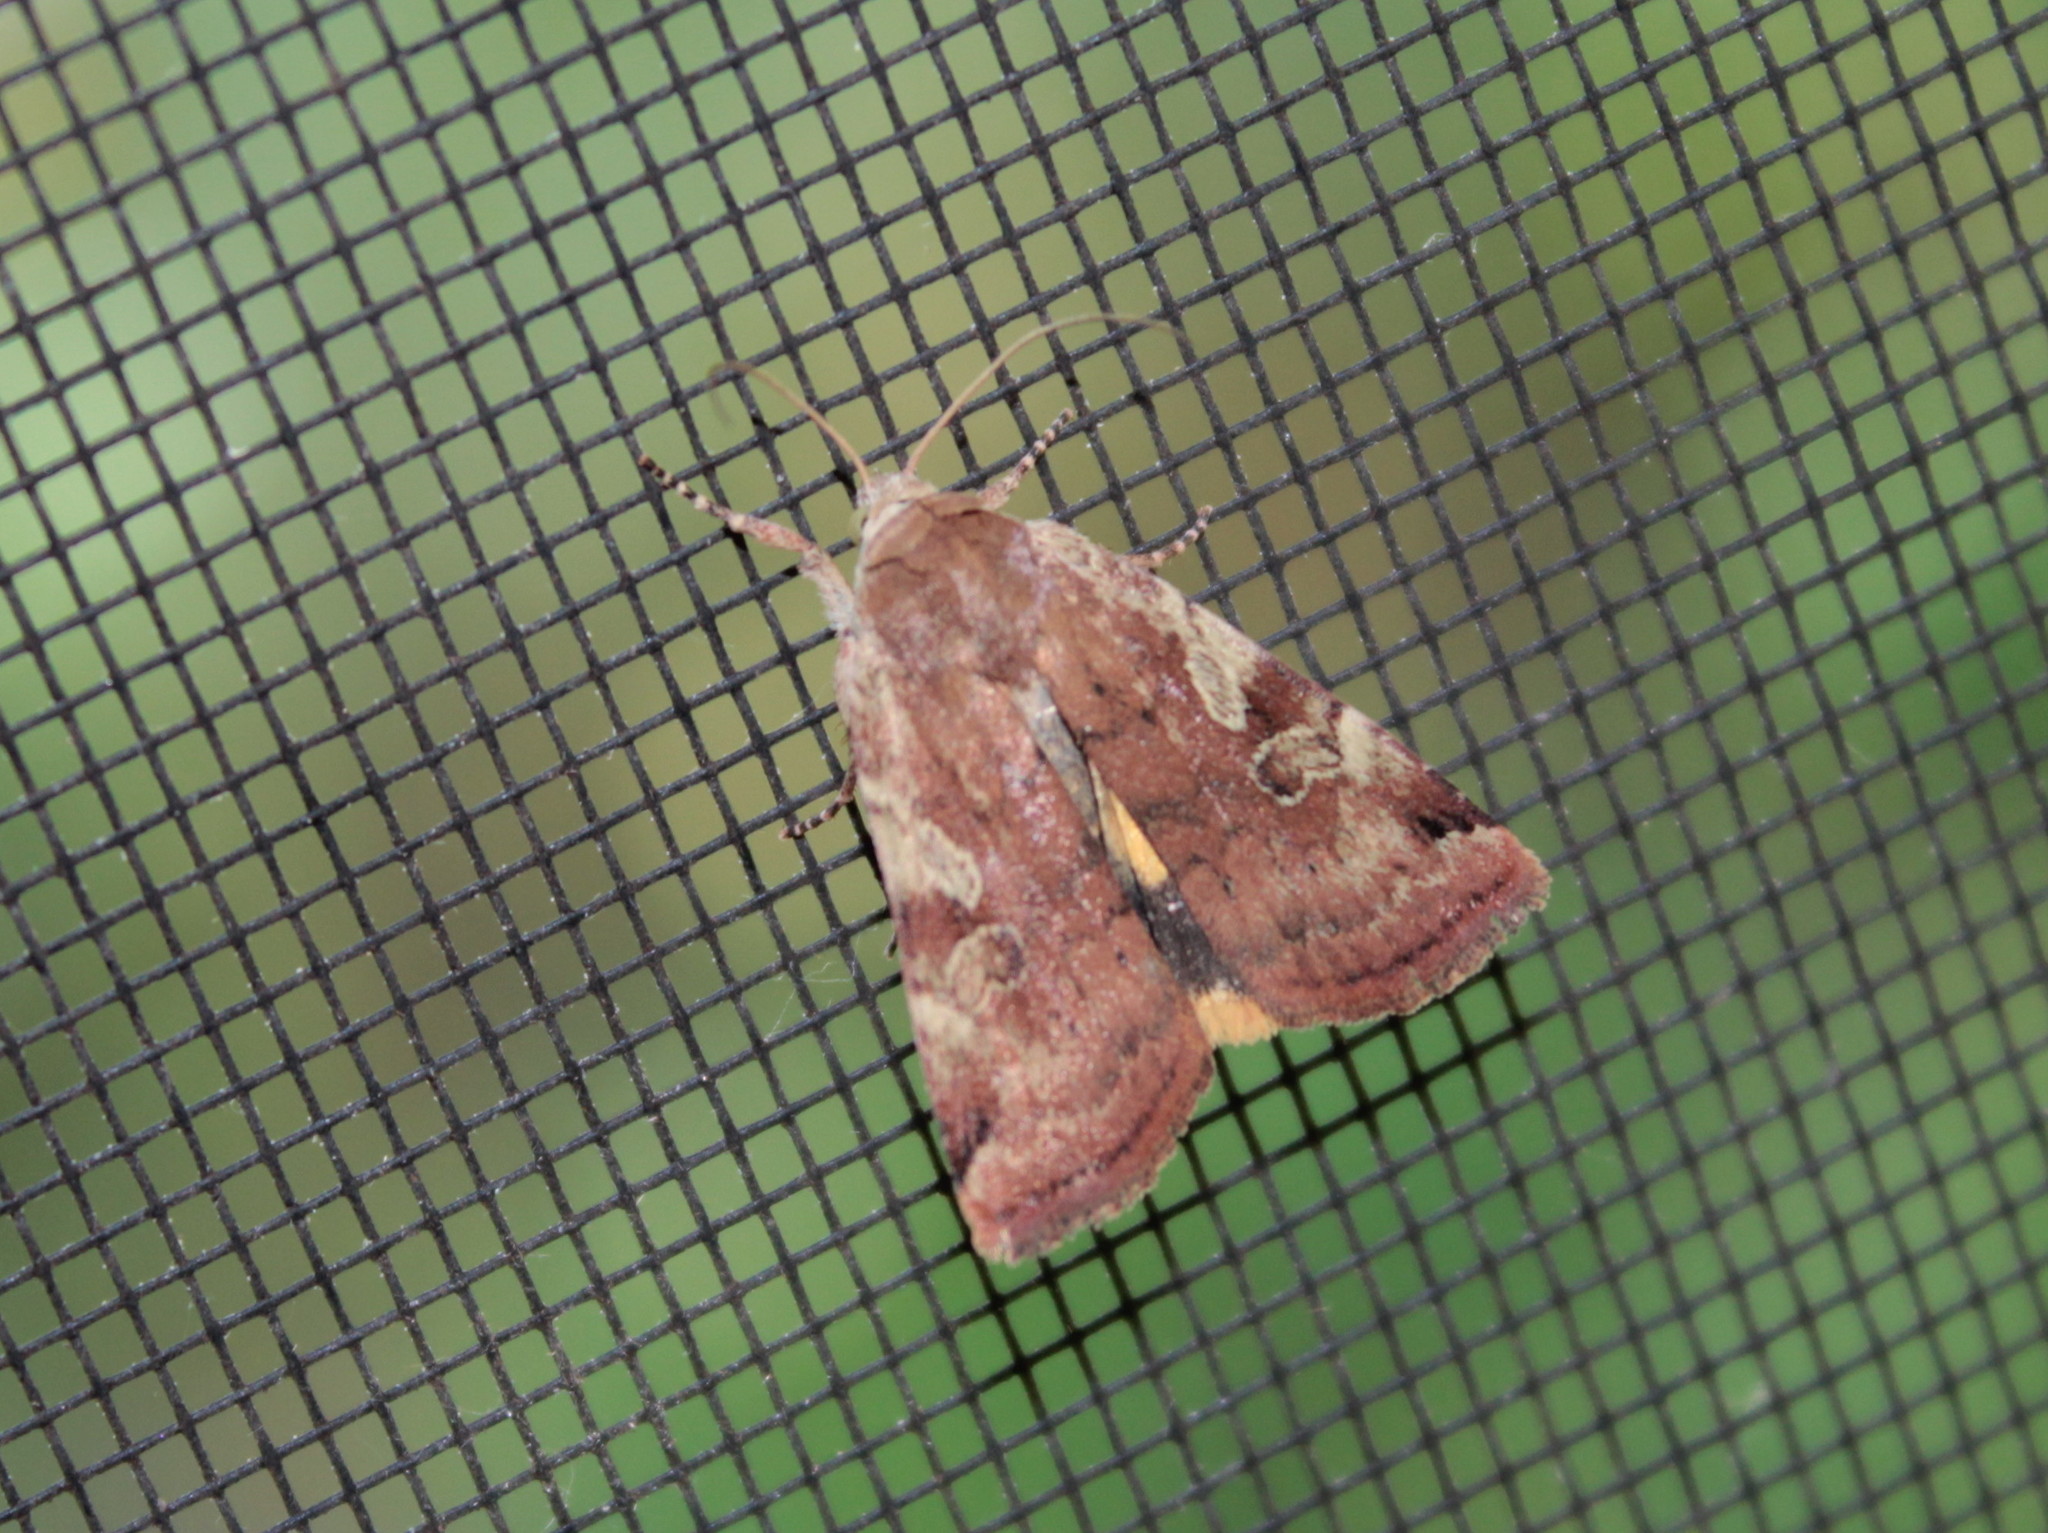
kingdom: Animalia
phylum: Arthropoda
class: Insecta
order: Lepidoptera
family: Noctuidae
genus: Cryptocala
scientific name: Cryptocala acadiensis
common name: Catocaline dart
